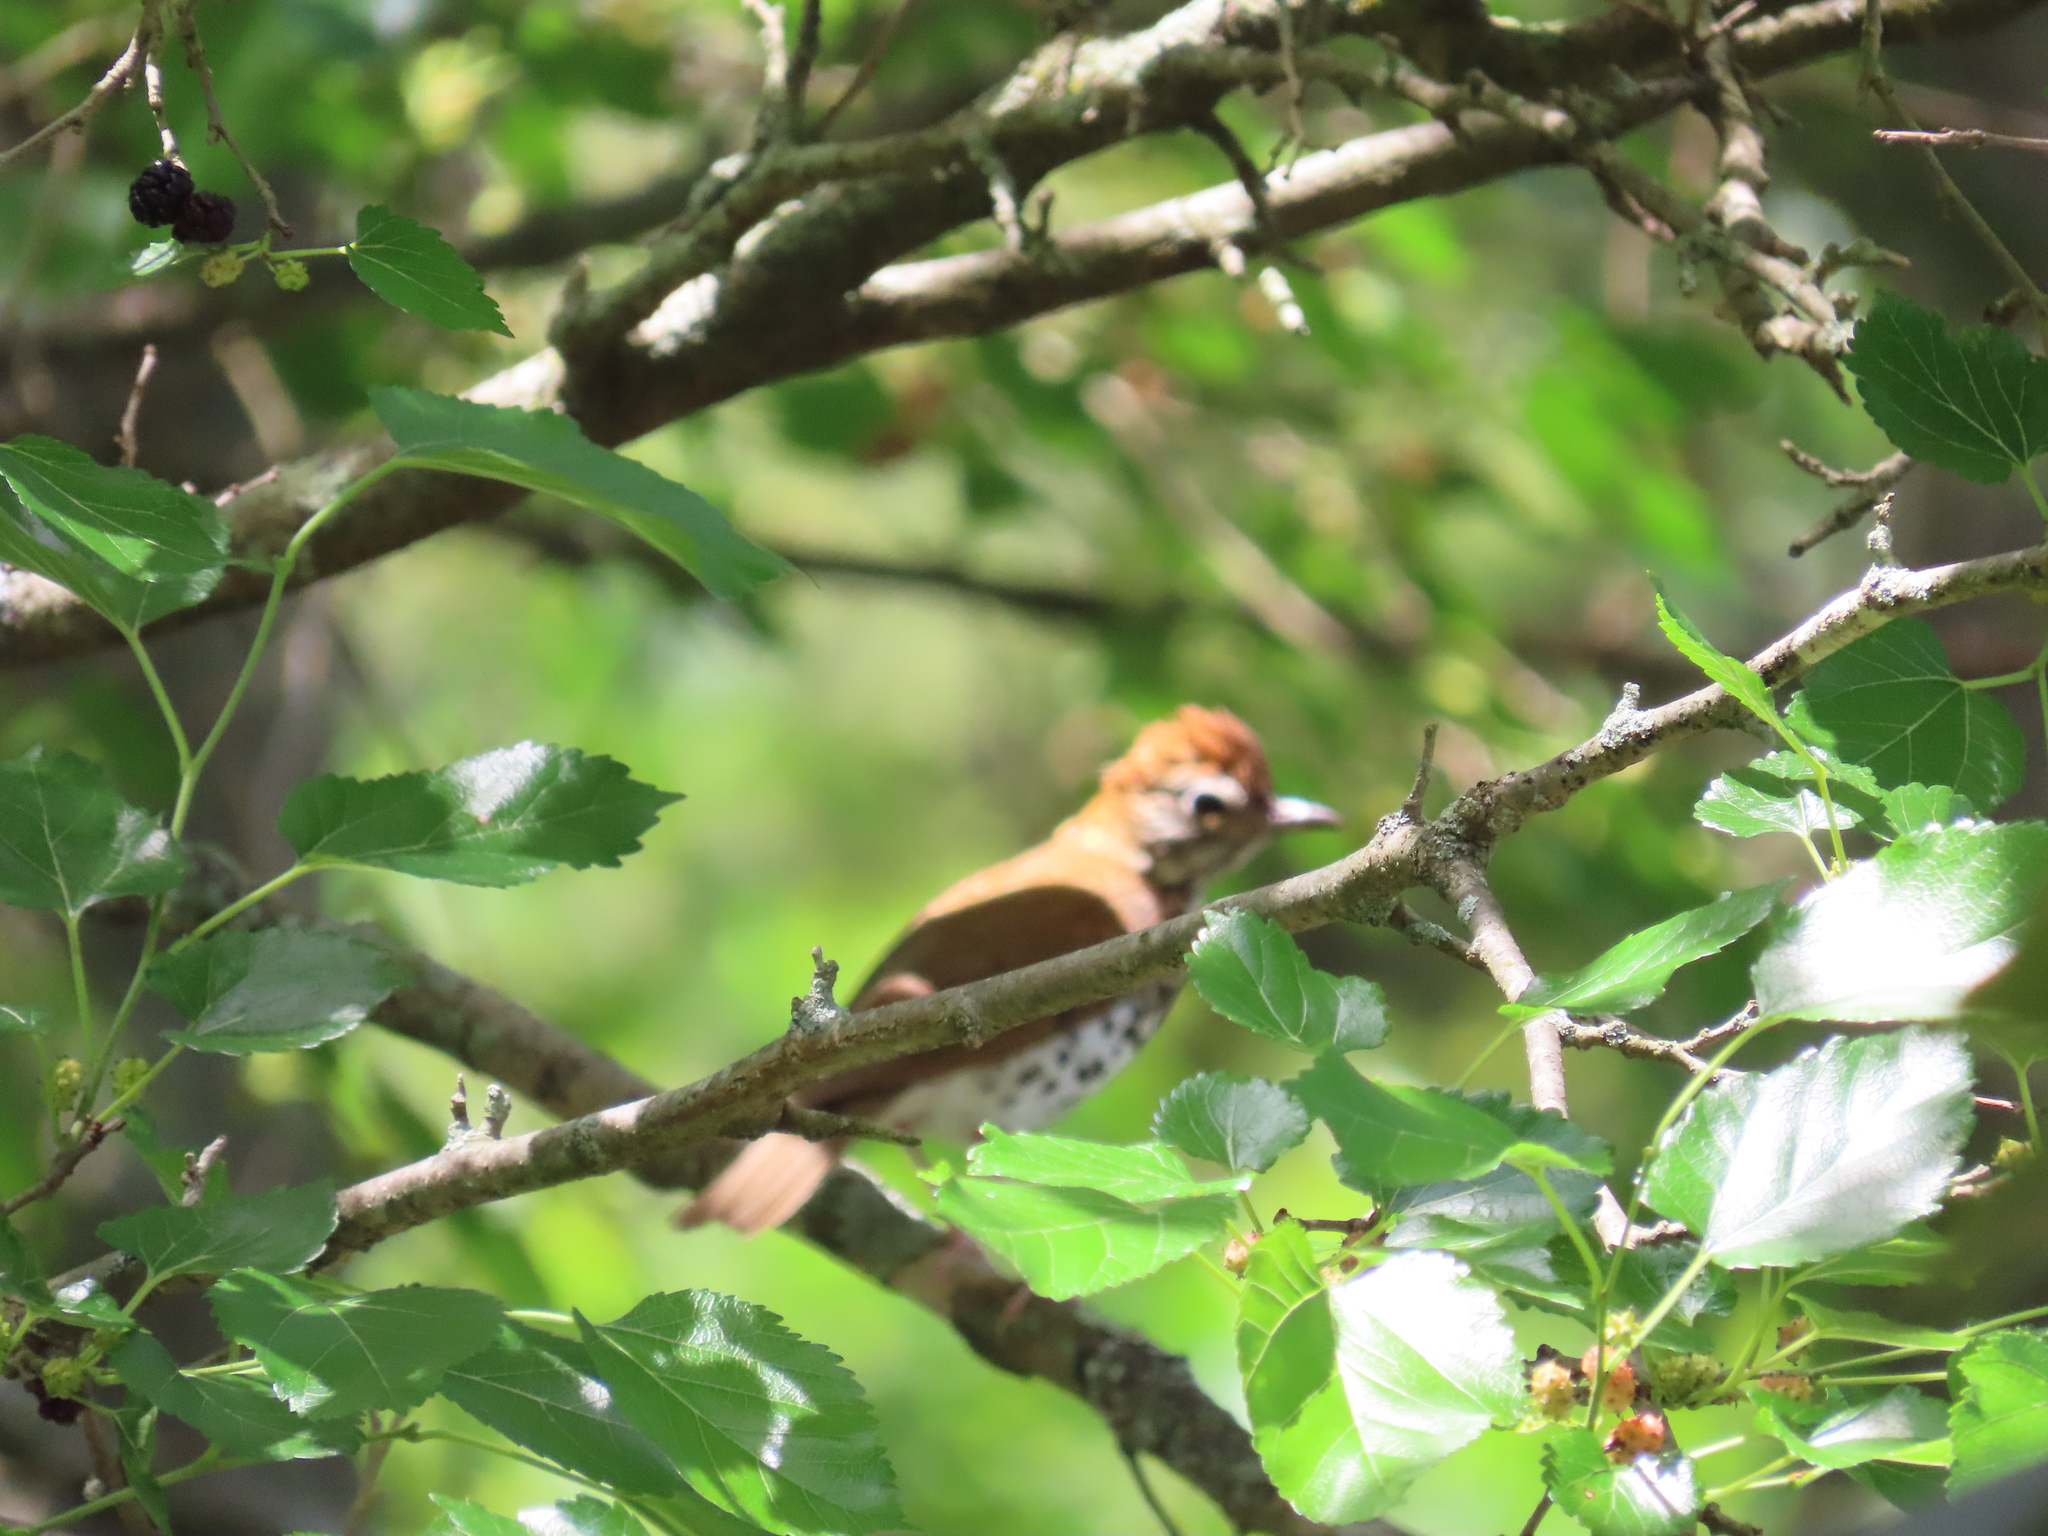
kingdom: Animalia
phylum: Chordata
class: Aves
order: Passeriformes
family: Turdidae
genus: Hylocichla
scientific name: Hylocichla mustelina
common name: Wood thrush
